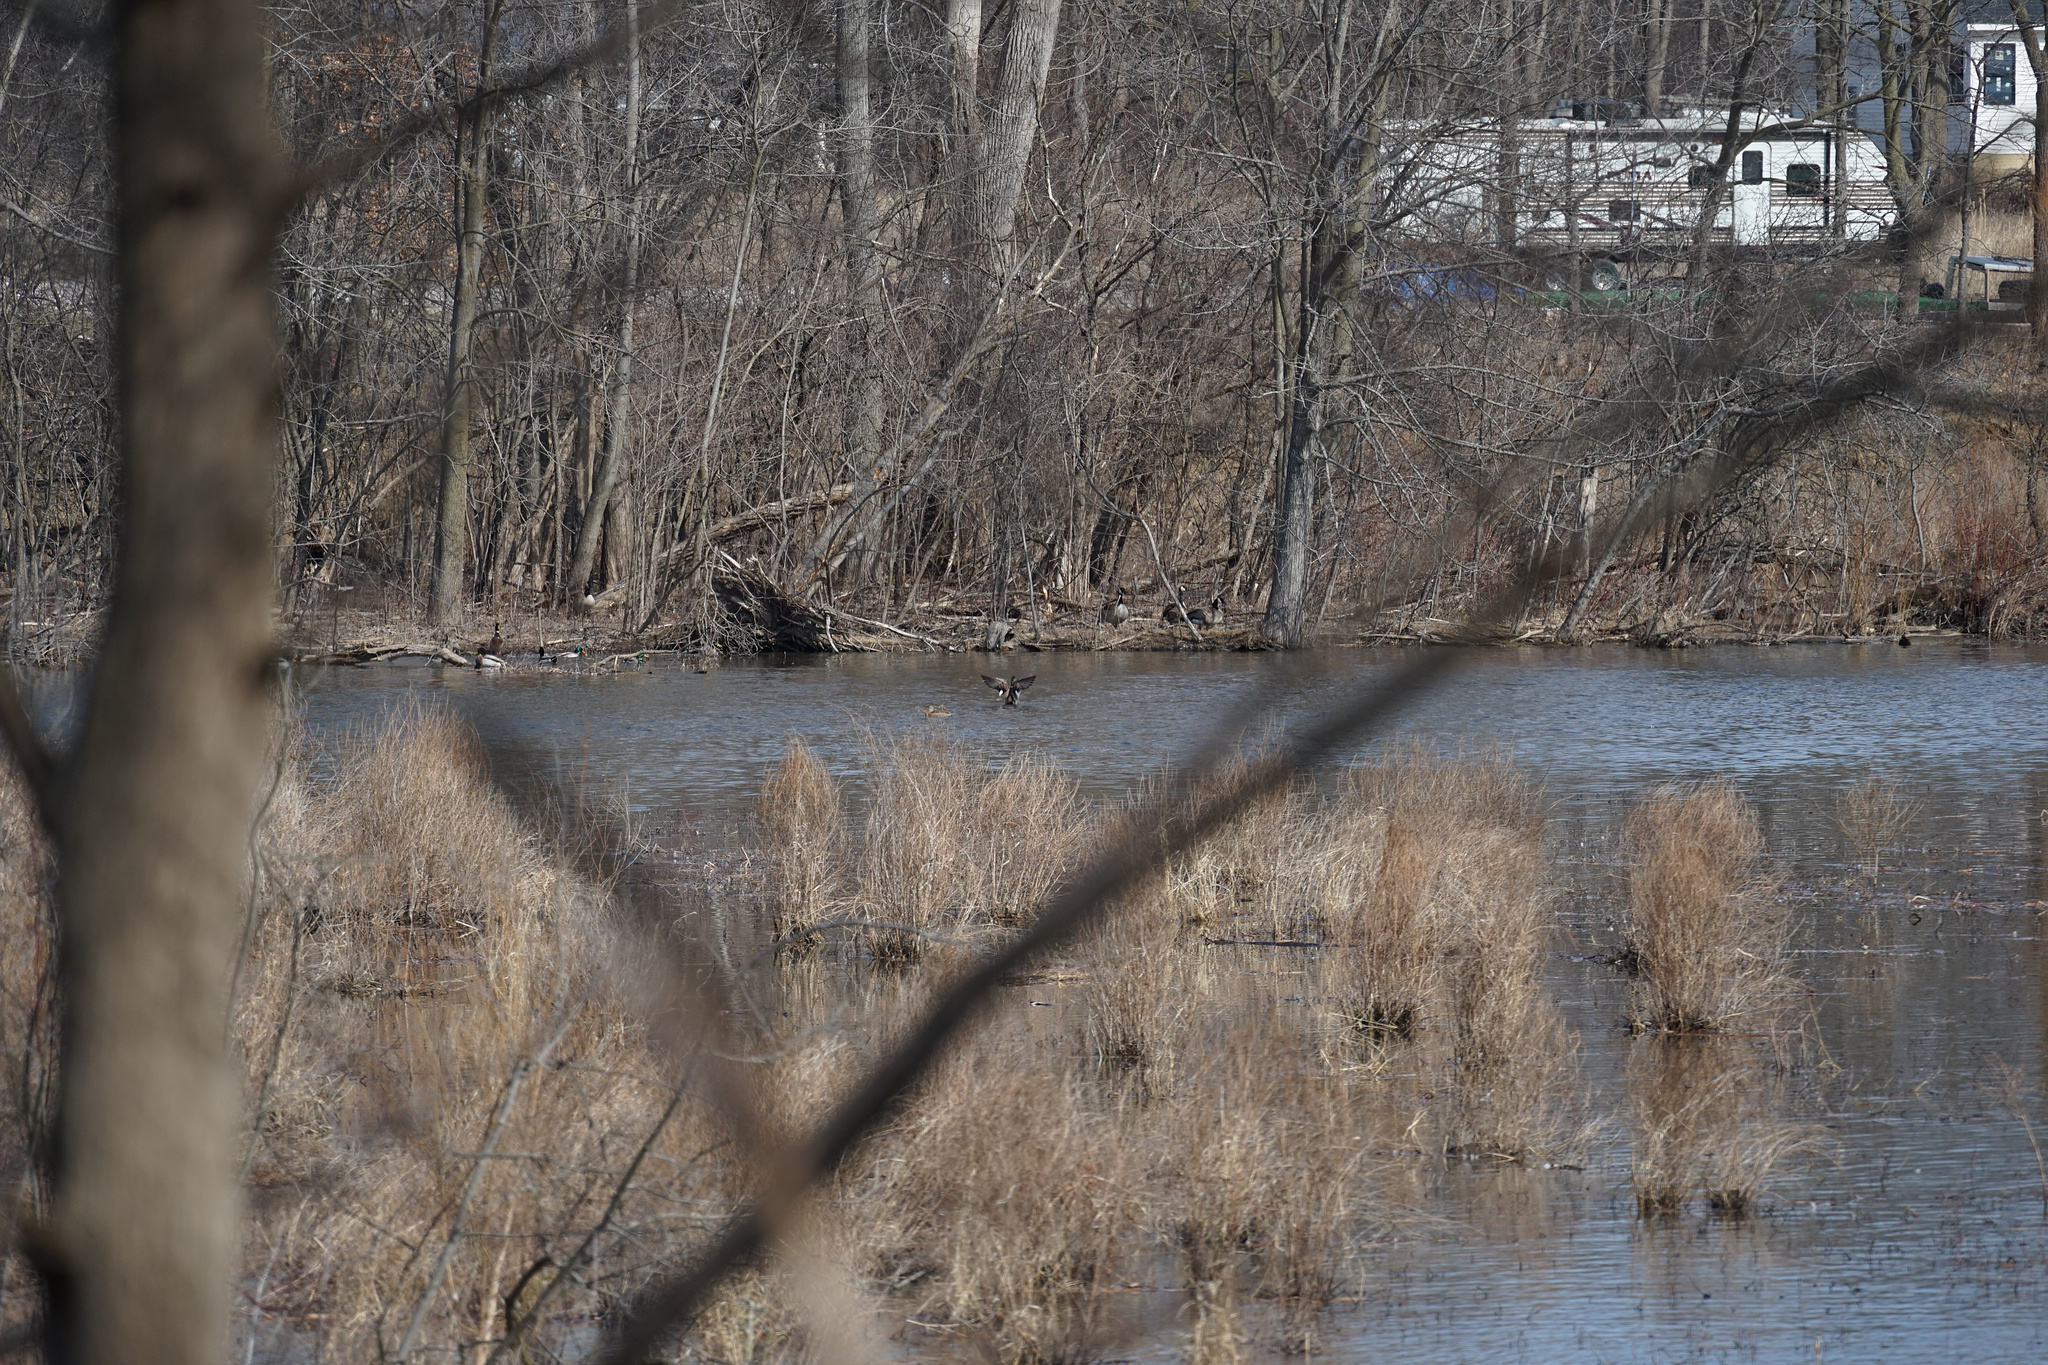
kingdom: Animalia
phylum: Chordata
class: Aves
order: Anseriformes
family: Anatidae
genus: Mareca
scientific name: Mareca strepera
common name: Gadwall
